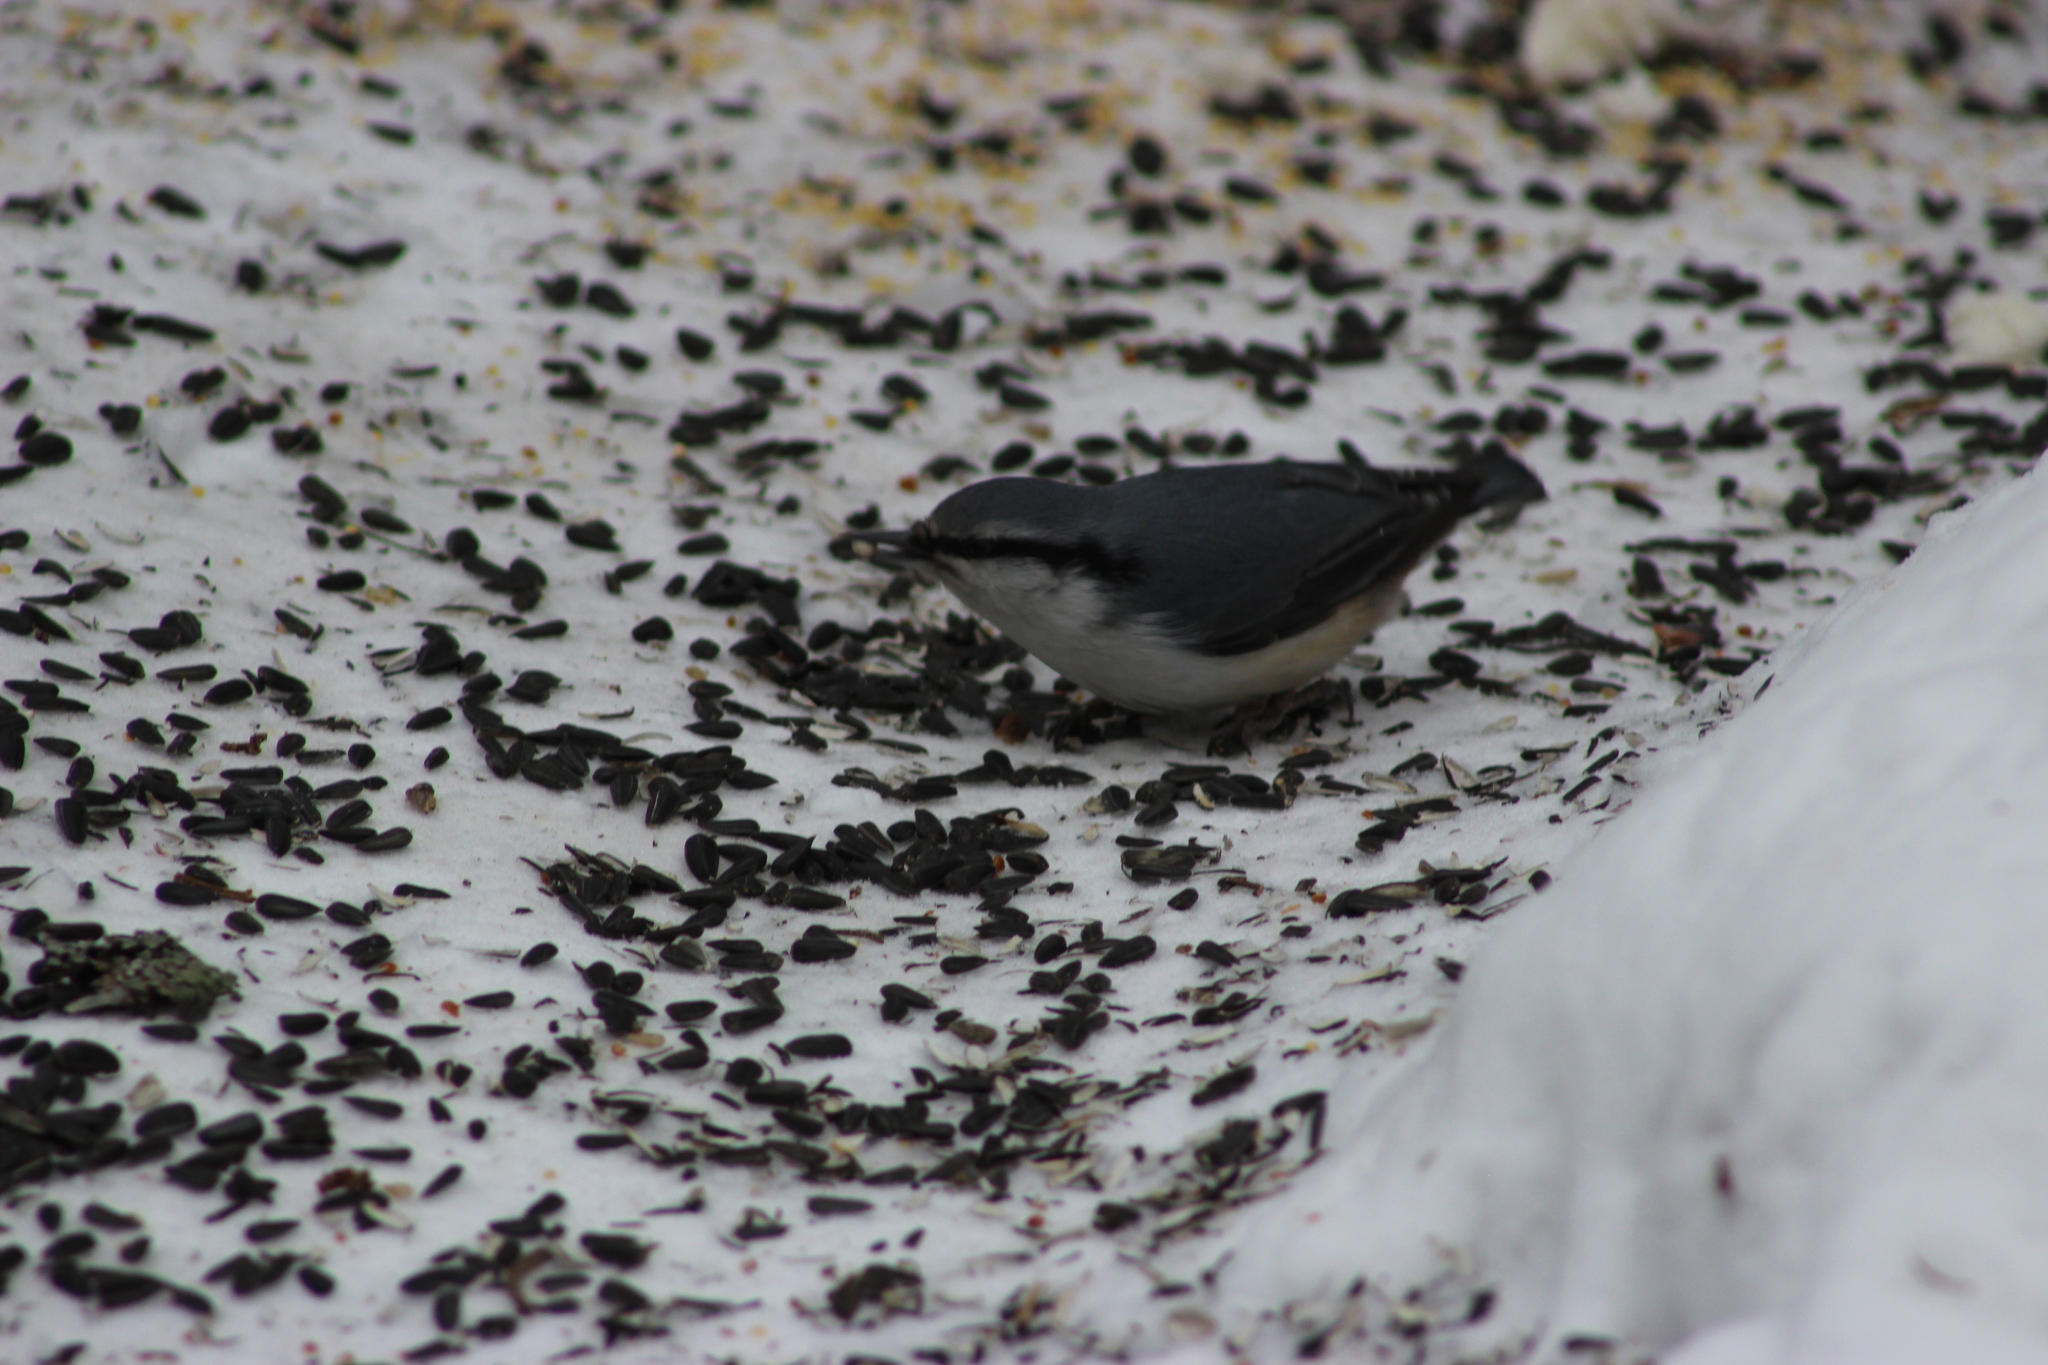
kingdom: Animalia
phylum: Chordata
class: Aves
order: Passeriformes
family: Sittidae
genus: Sitta
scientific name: Sitta europaea
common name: Eurasian nuthatch
